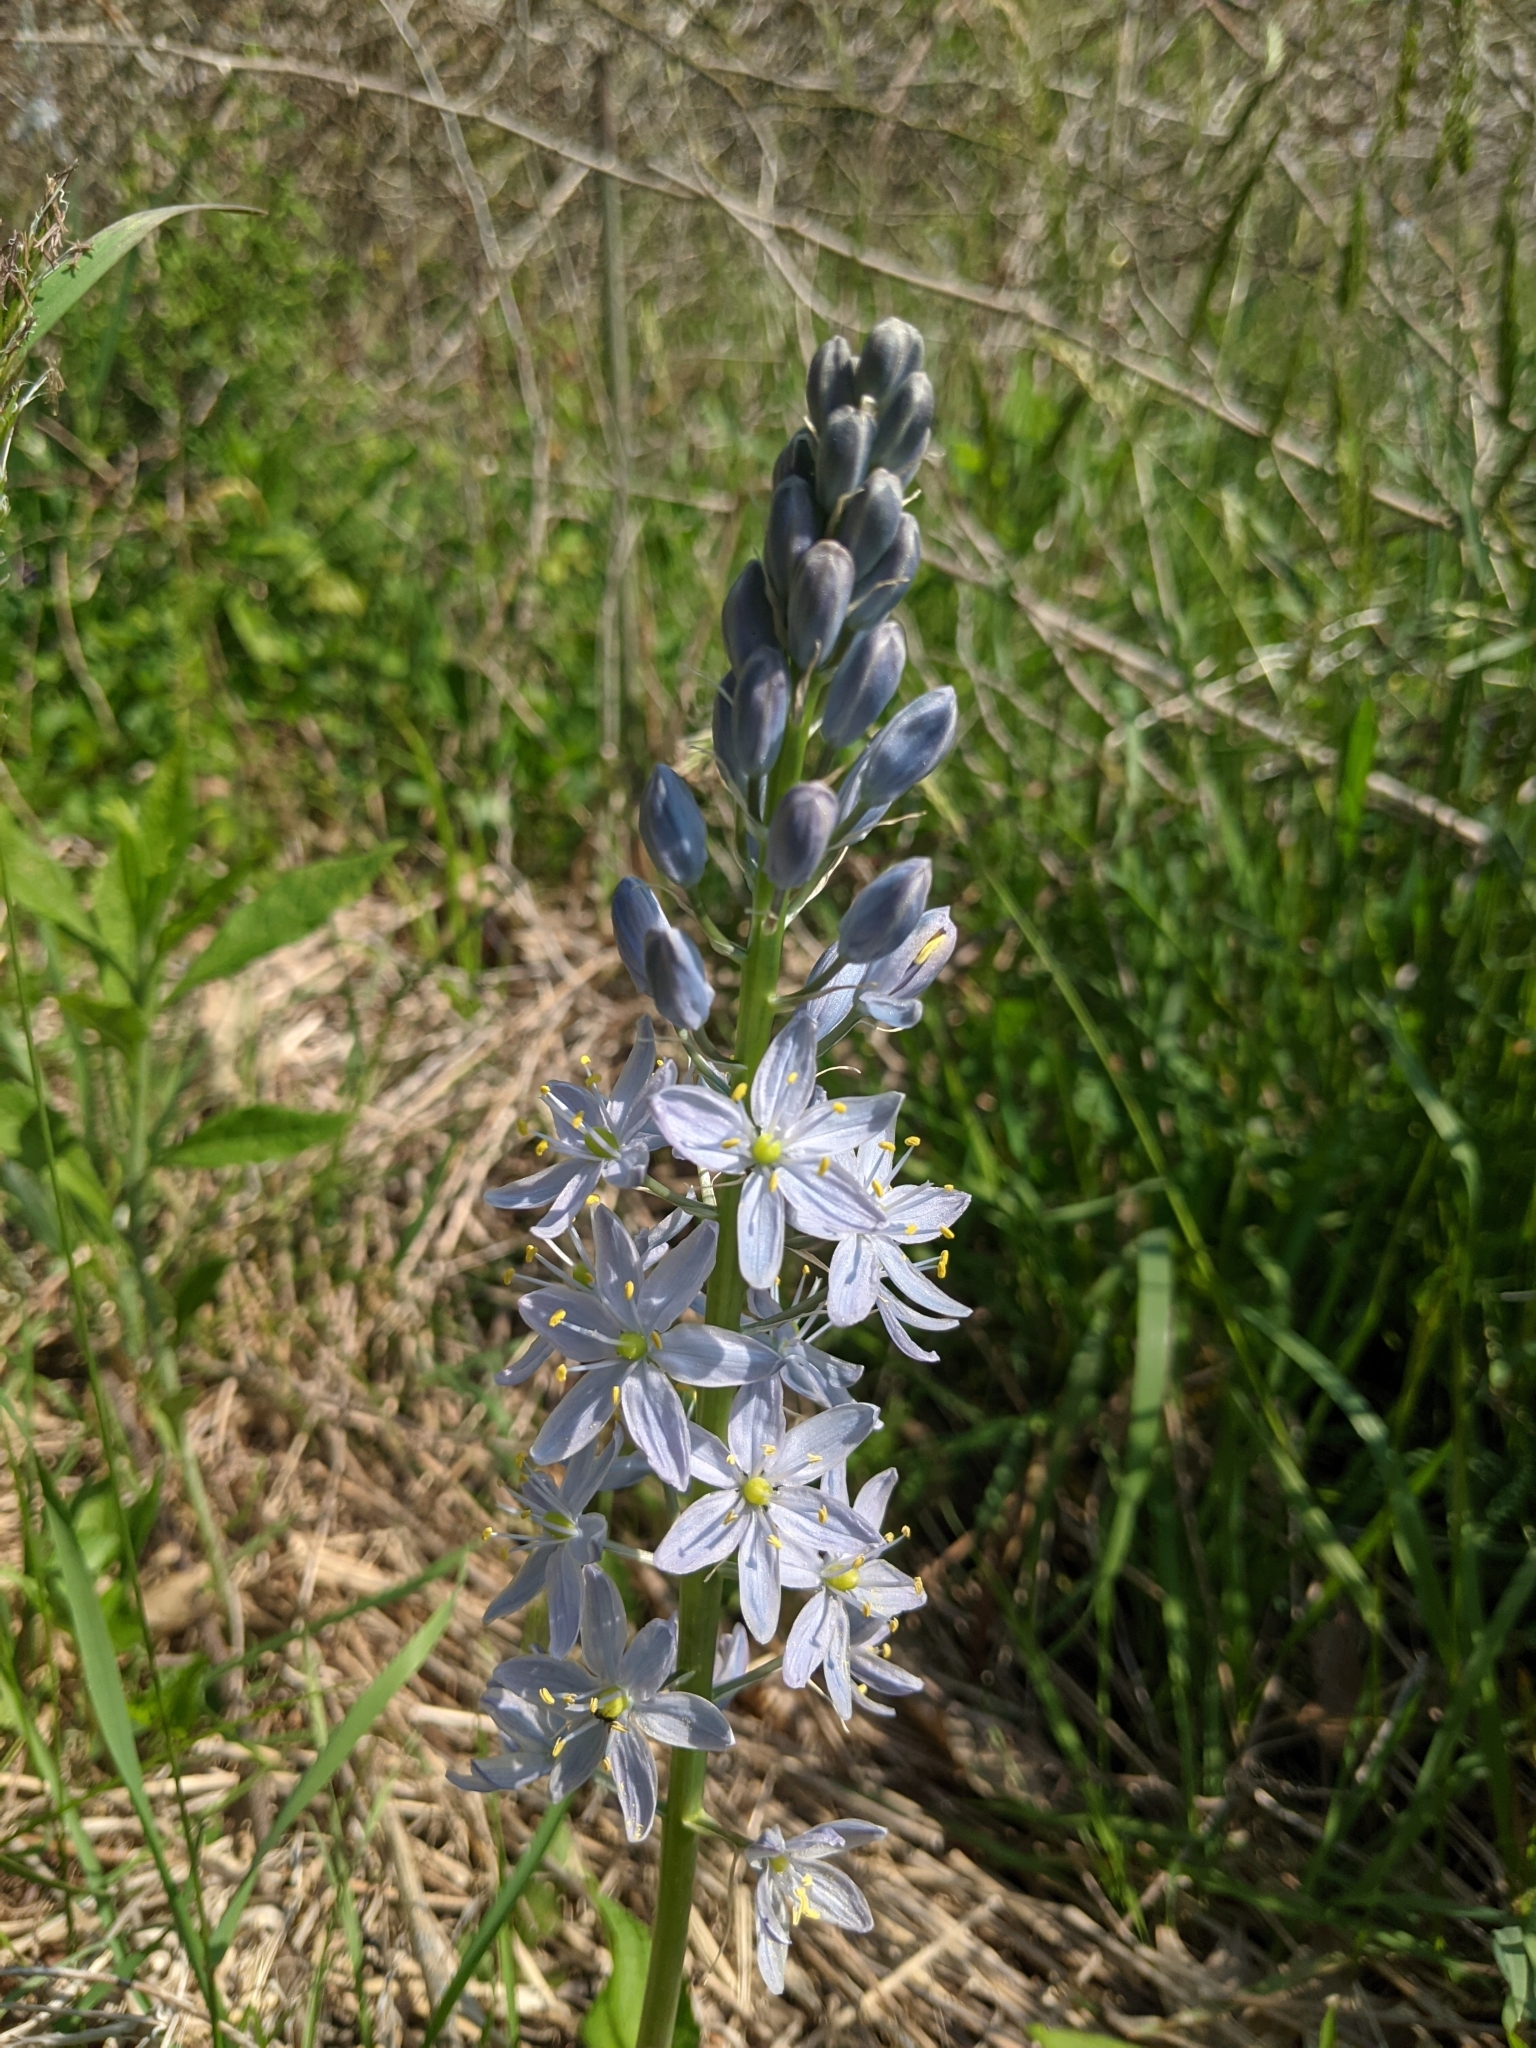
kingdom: Plantae
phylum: Tracheophyta
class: Liliopsida
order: Asparagales
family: Asparagaceae
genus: Camassia
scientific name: Camassia scilloides
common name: Wild hyacinth
